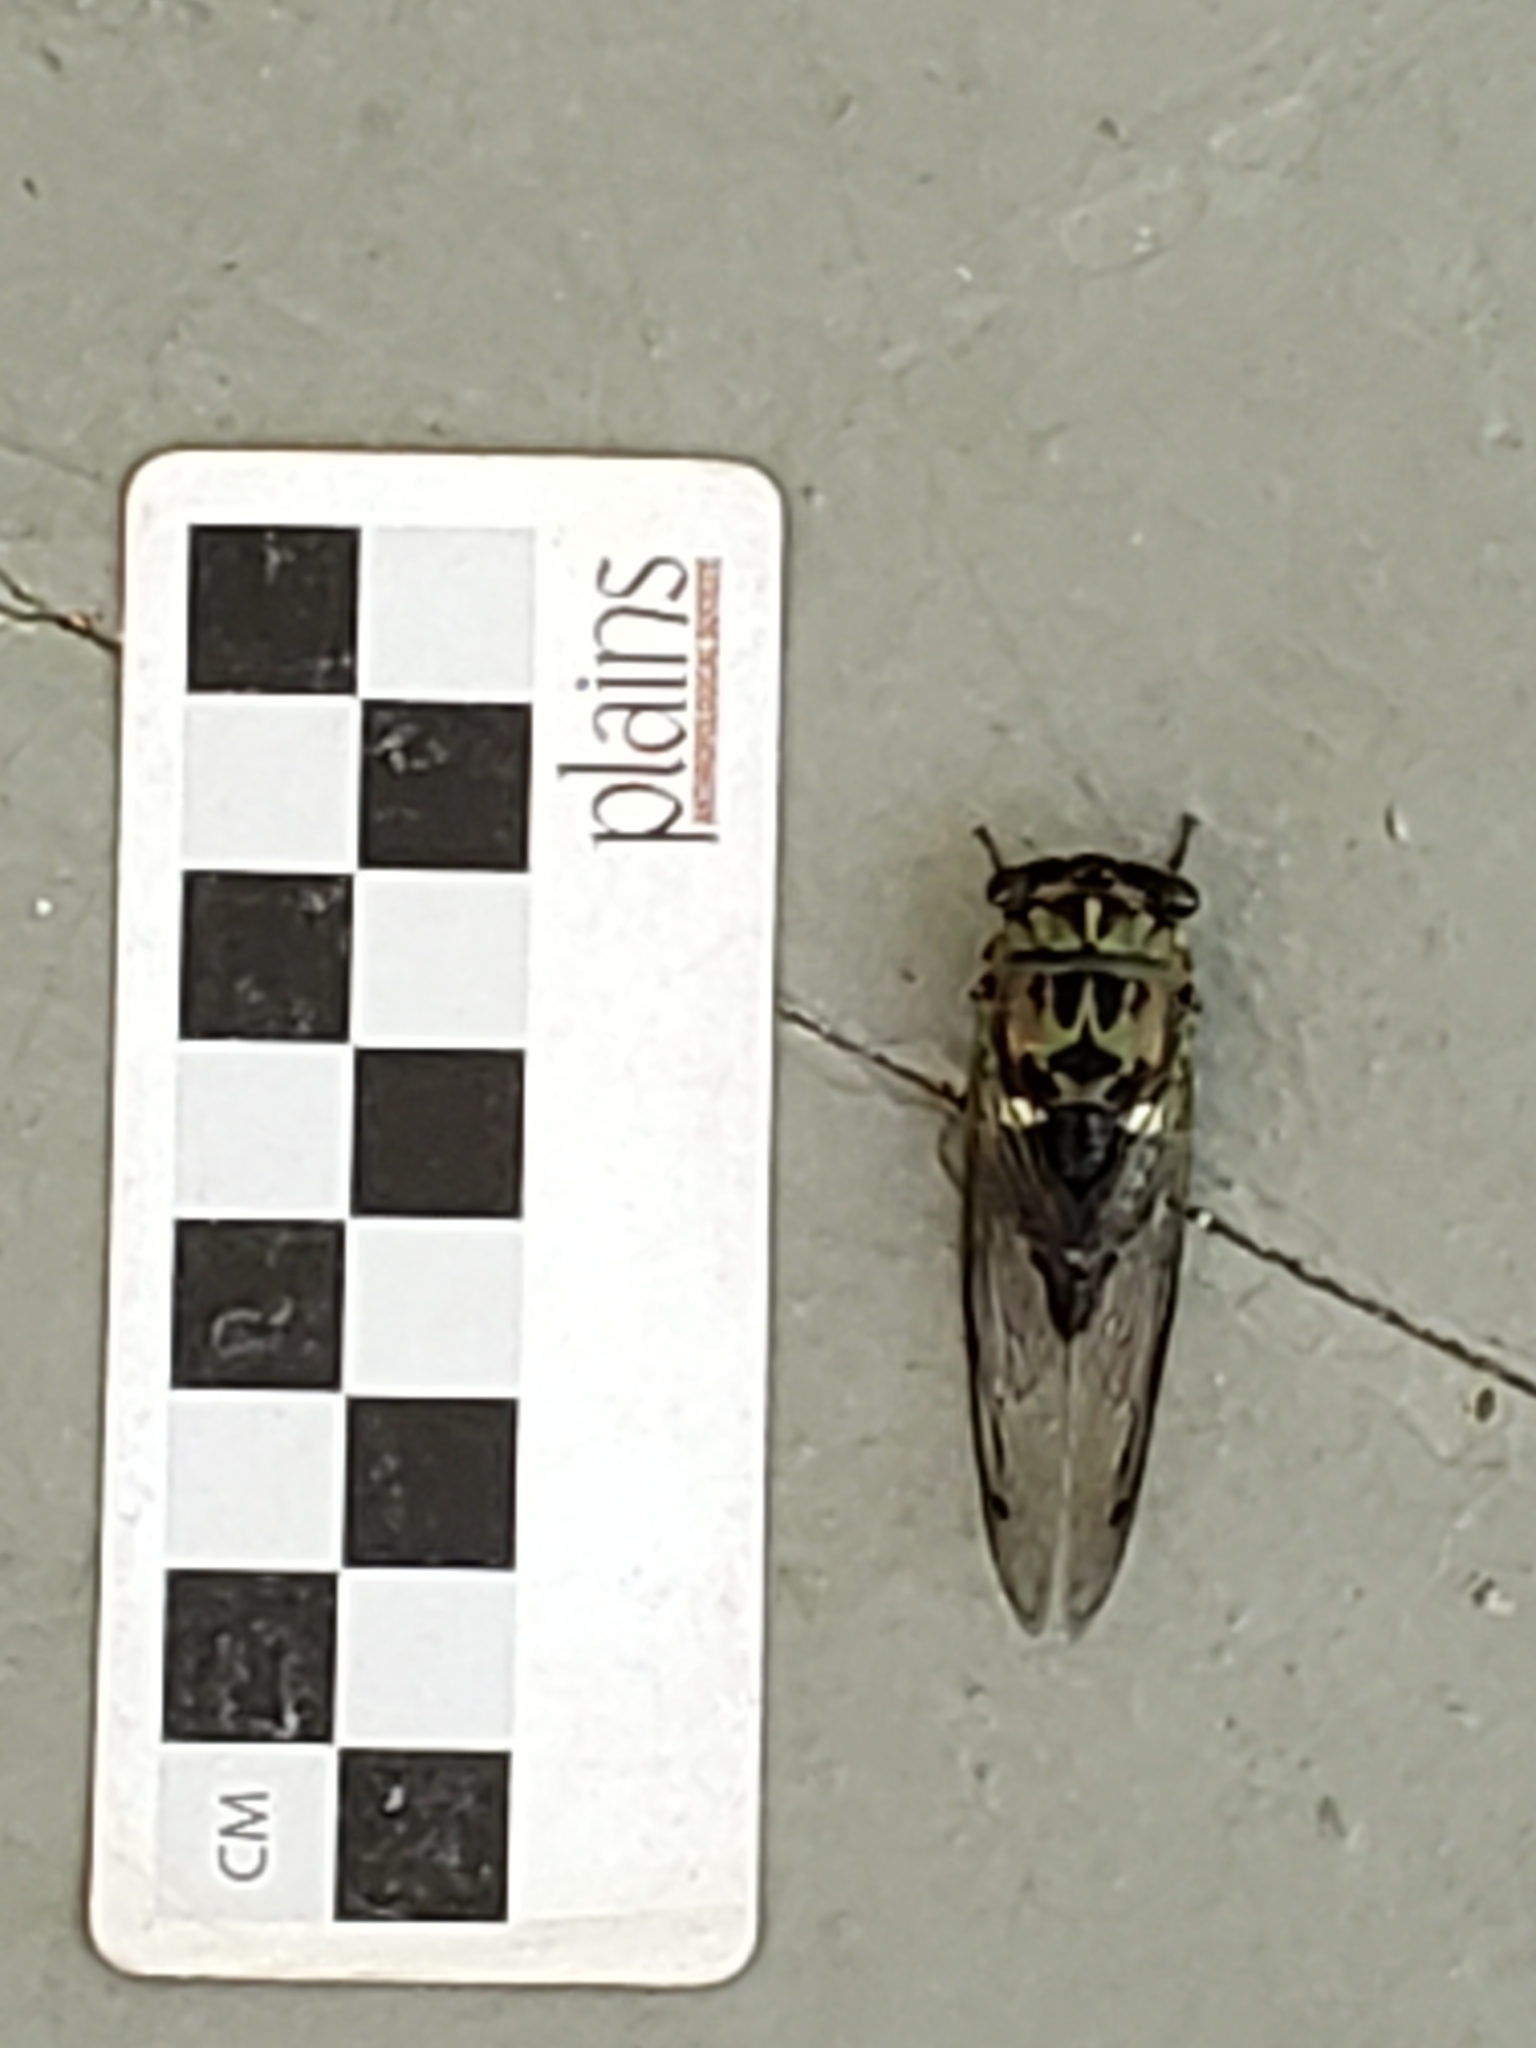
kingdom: Animalia
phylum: Arthropoda
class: Insecta
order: Hemiptera
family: Cicadidae
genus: Neotibicen
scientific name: Neotibicen pruinosus
